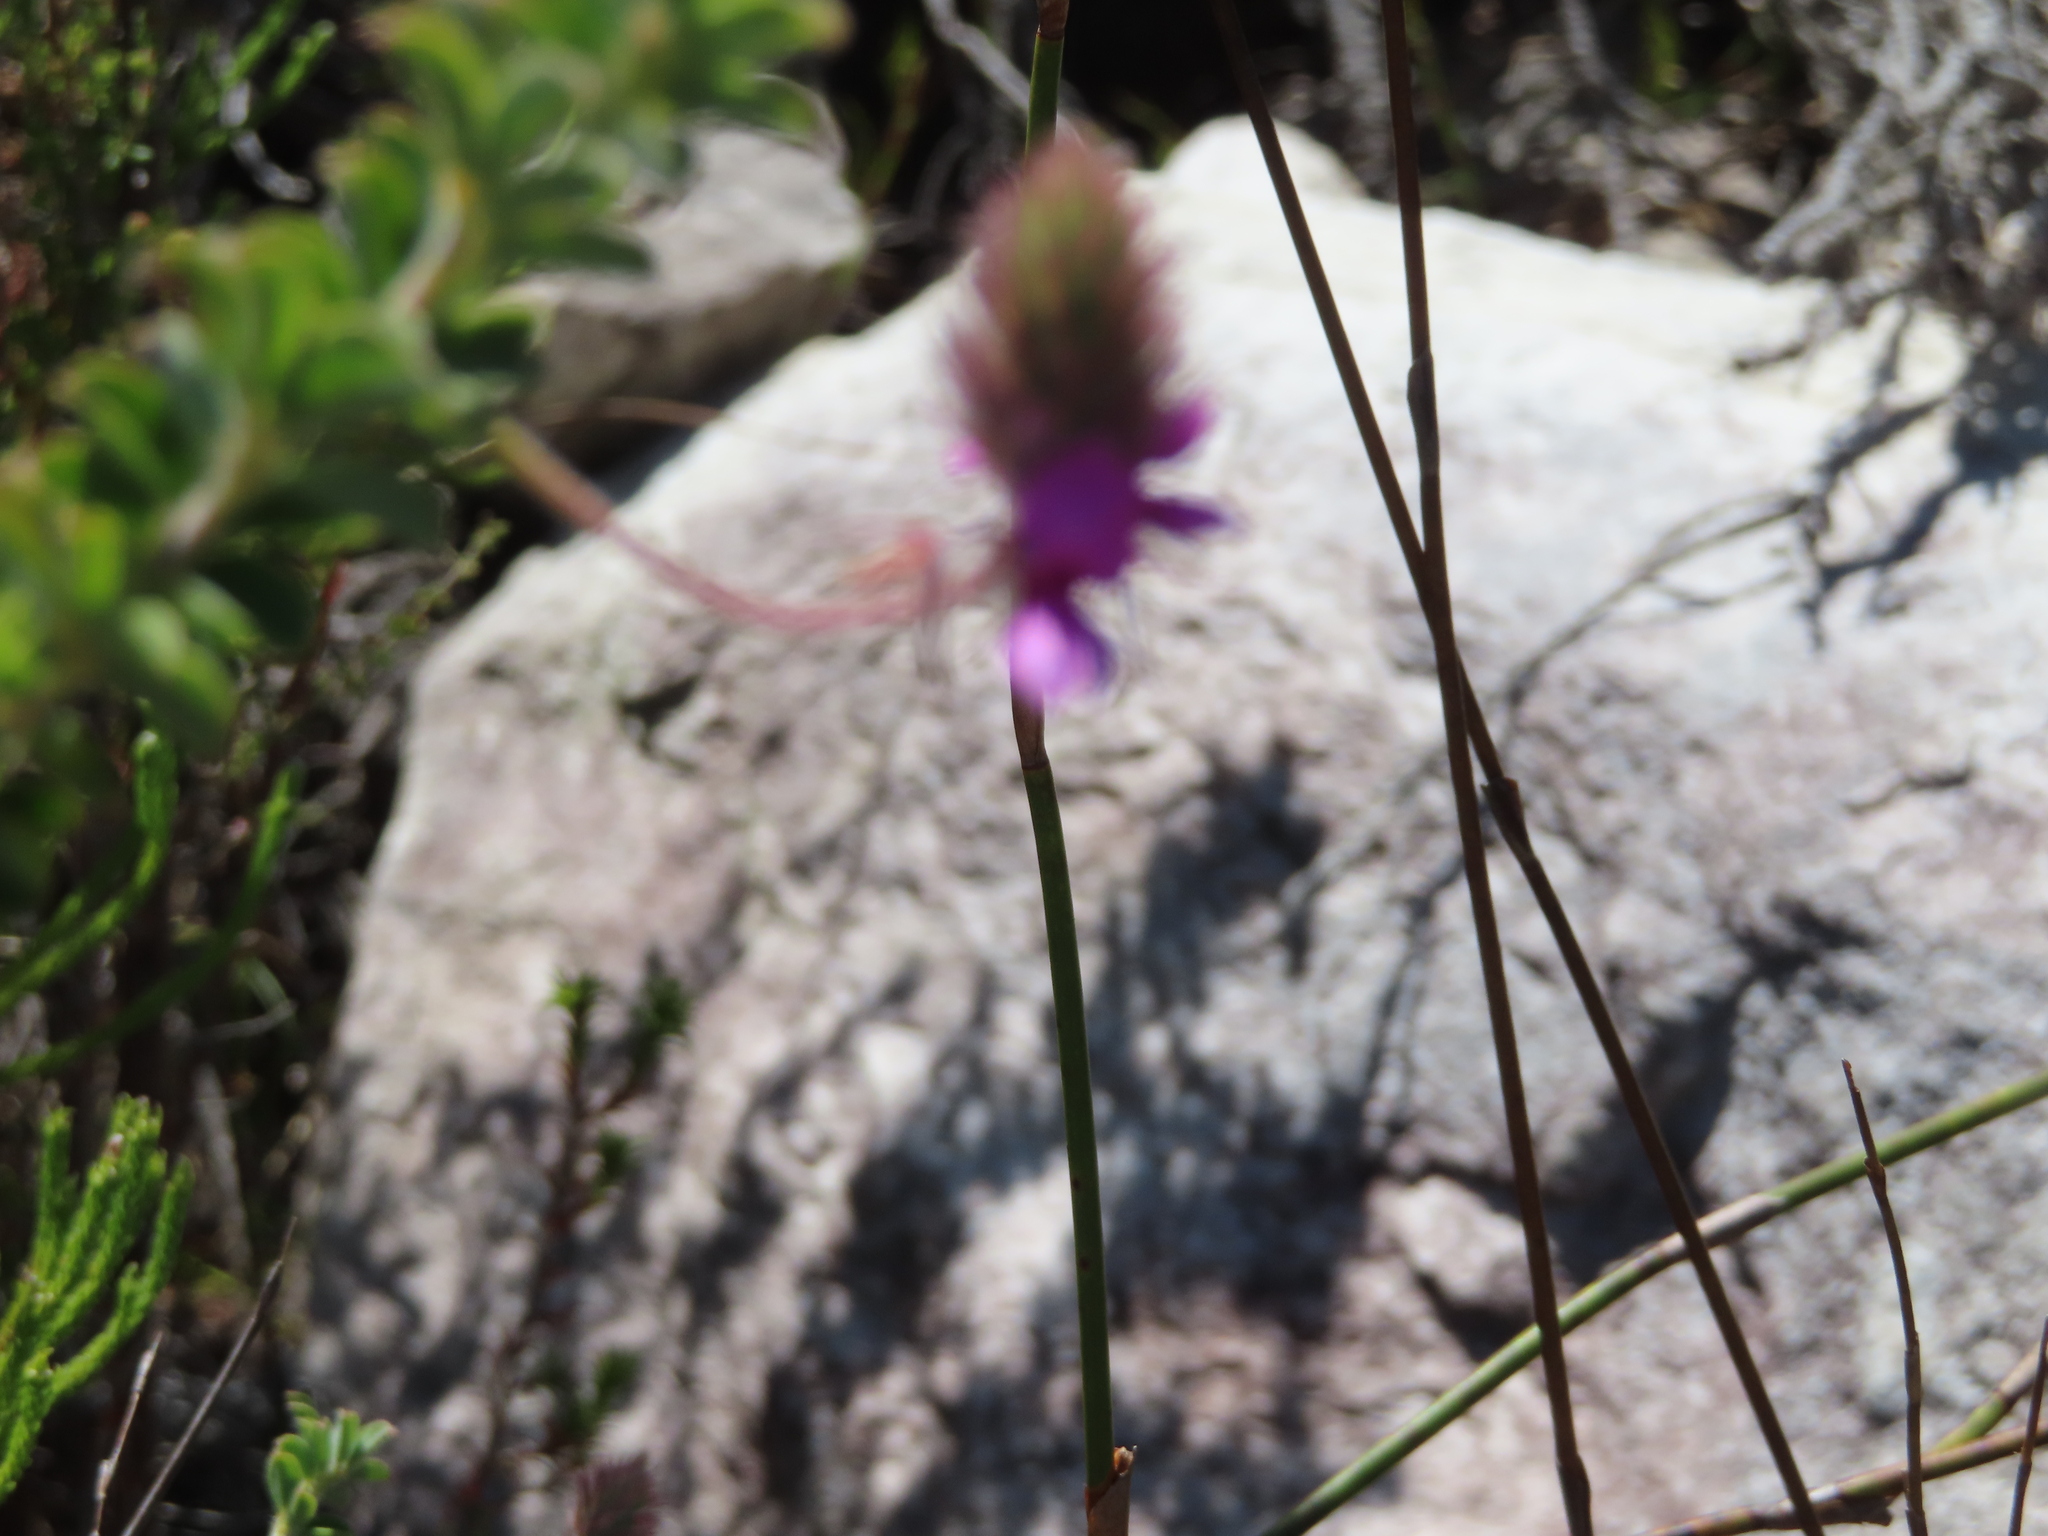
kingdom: Plantae
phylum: Tracheophyta
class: Magnoliopsida
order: Fabales
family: Fabaceae
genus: Indigofera
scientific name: Indigofera alopecuroides
